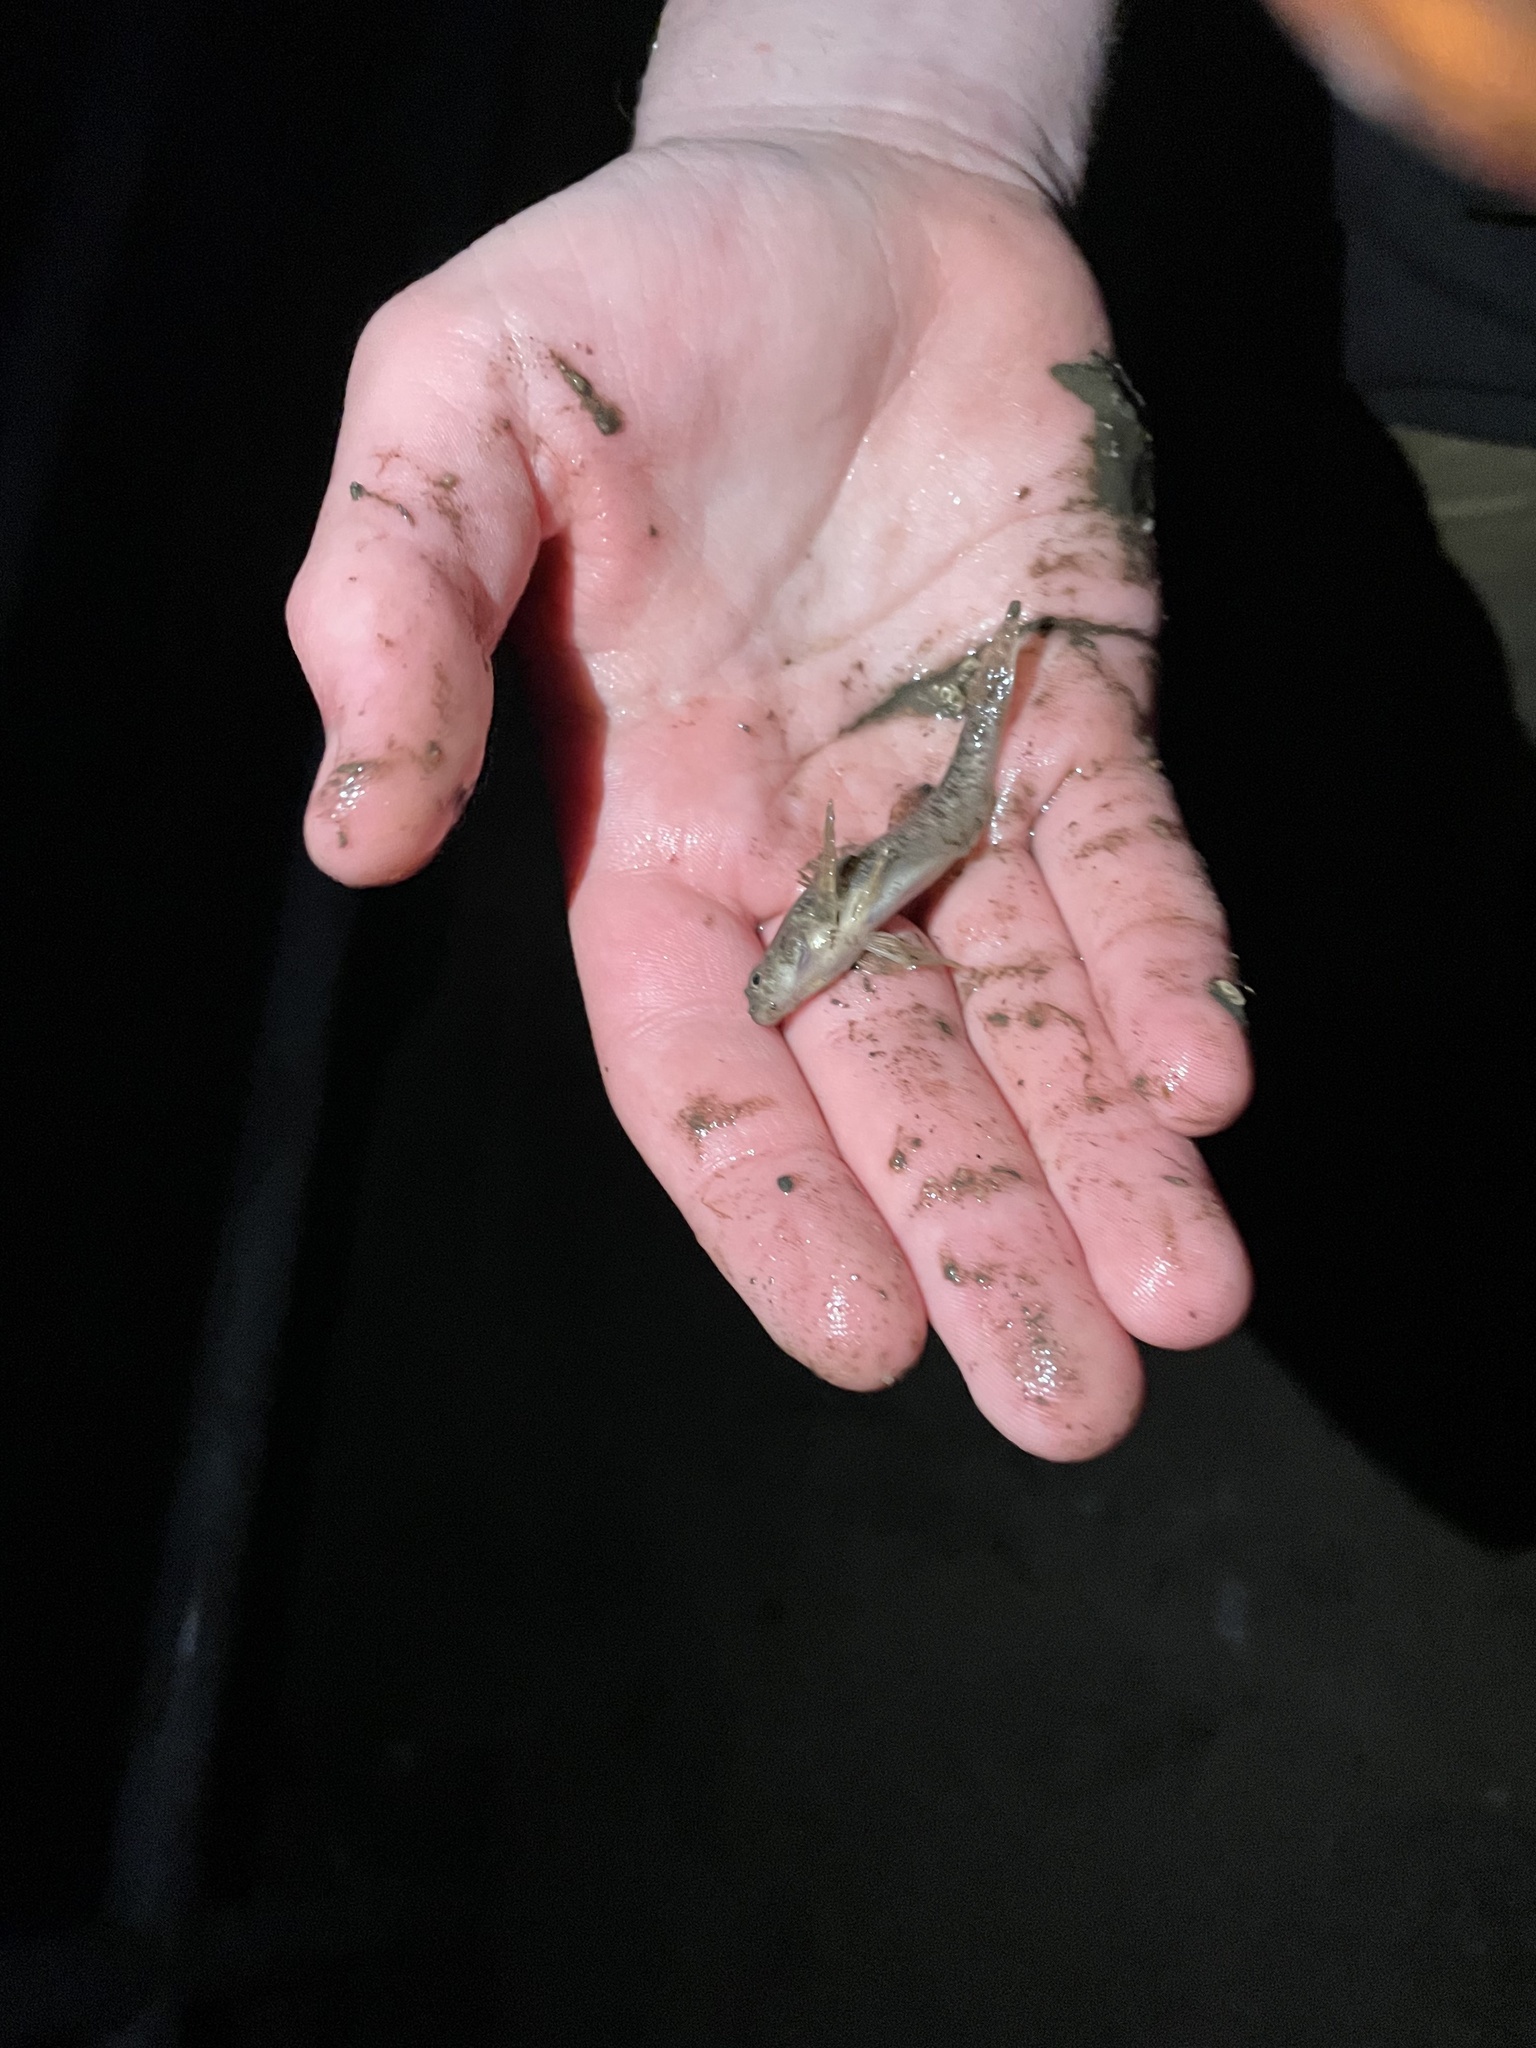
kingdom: Animalia
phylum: Chordata
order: Perciformes
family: Percidae
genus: Etheostoma
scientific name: Etheostoma nigrum
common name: Johnny darter
